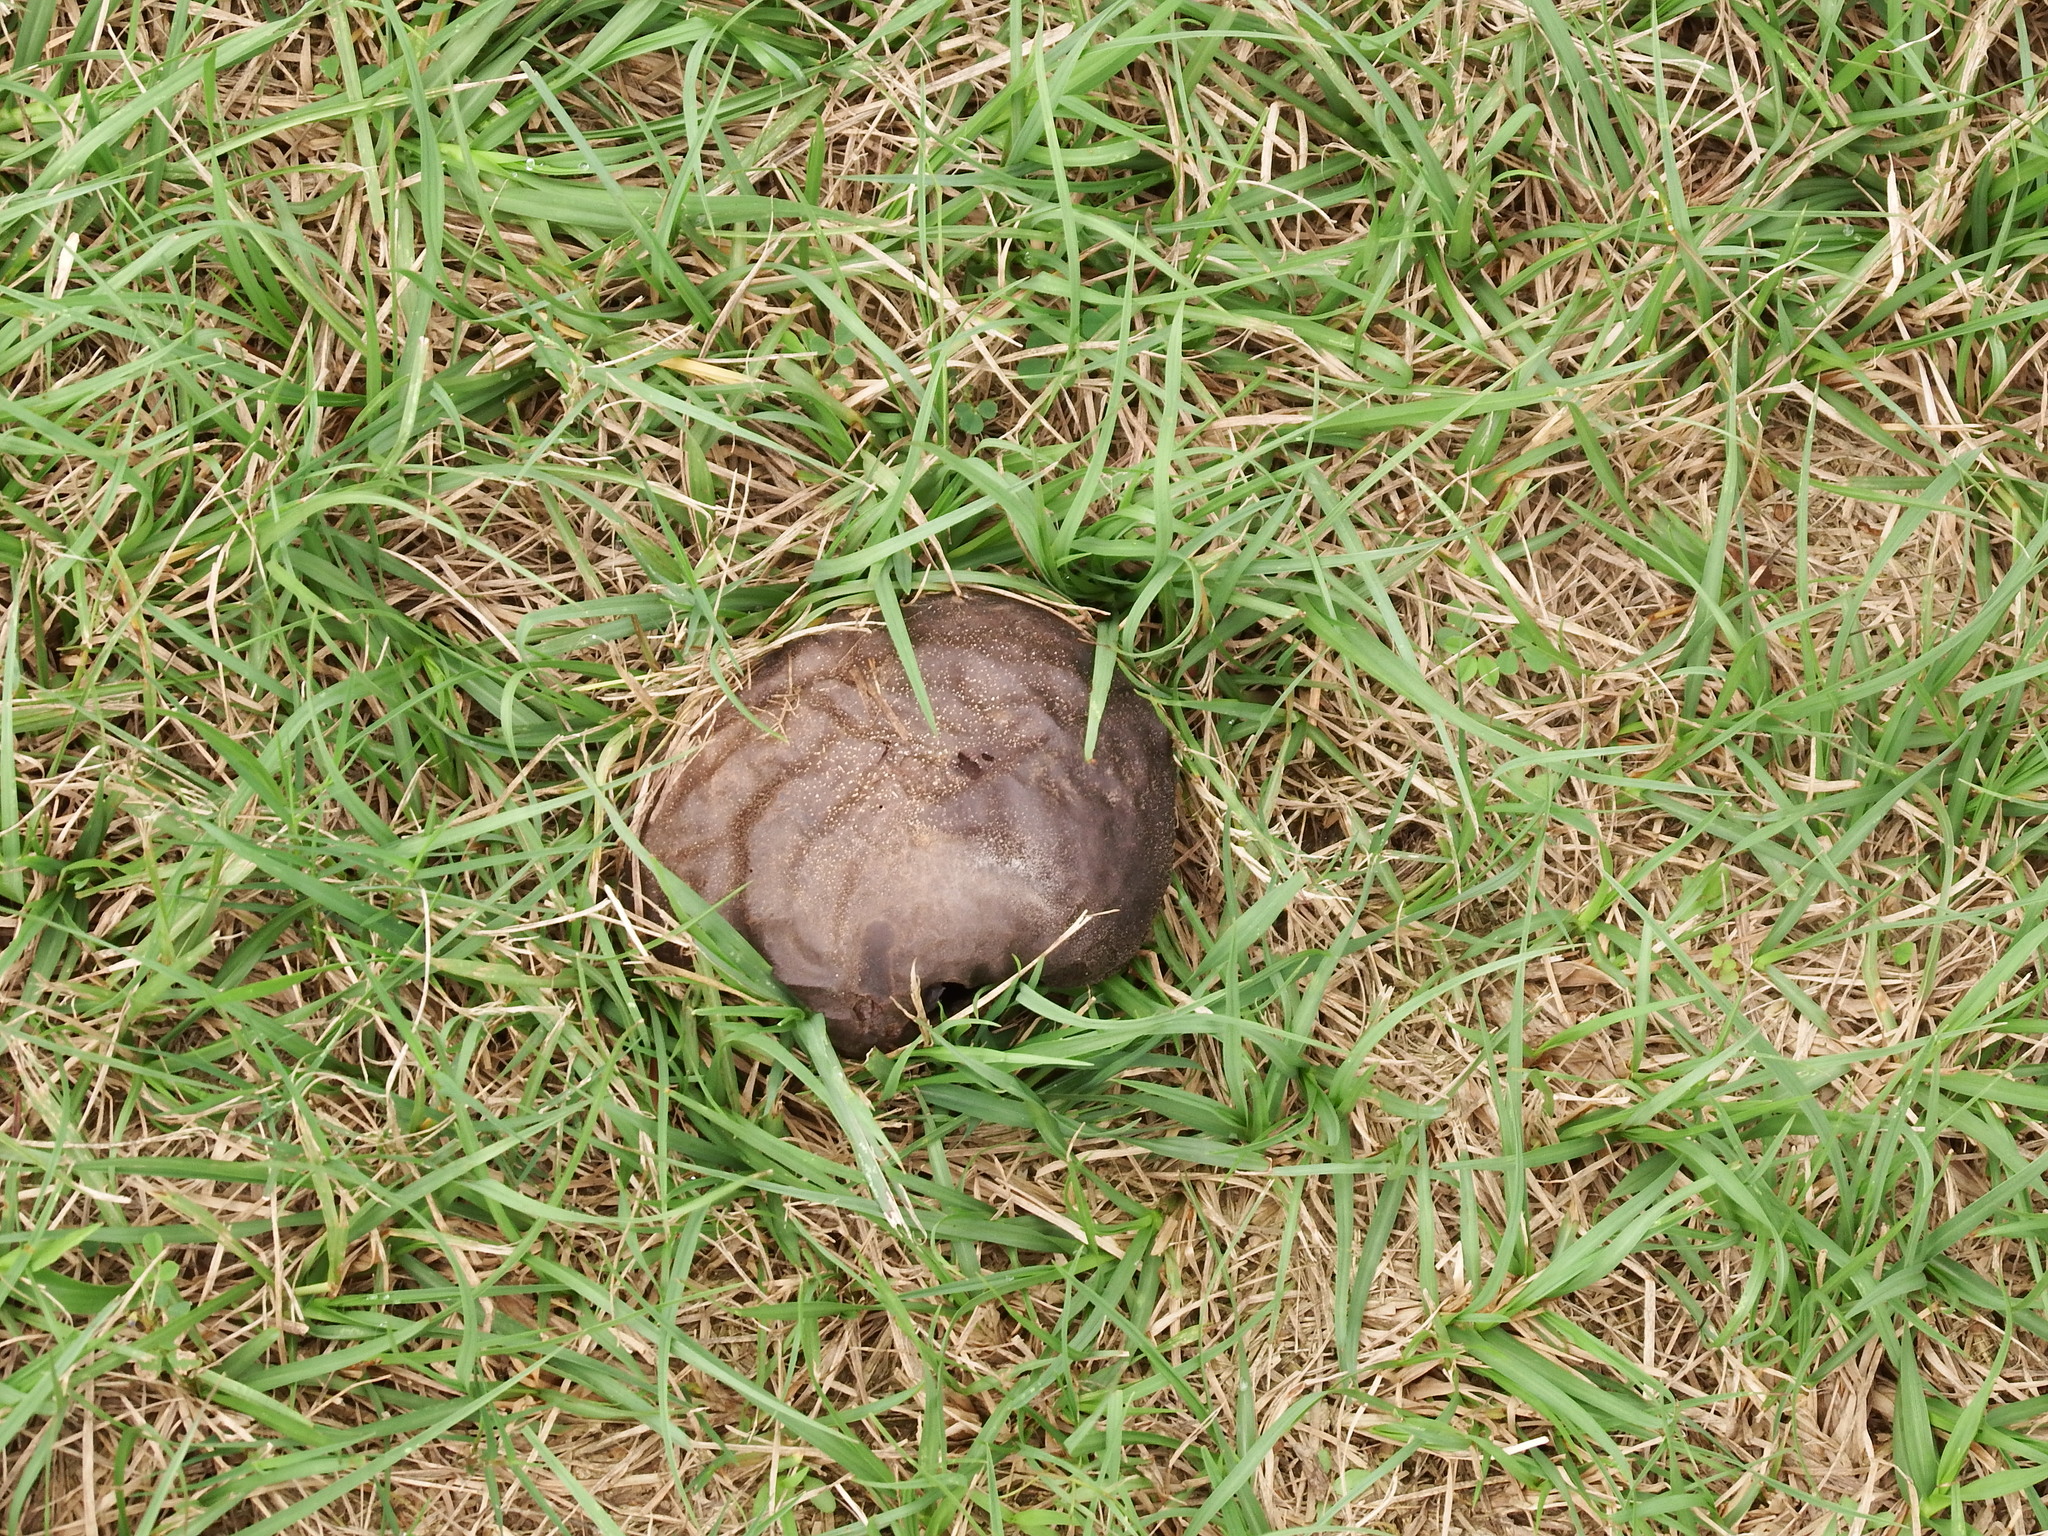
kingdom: Fungi
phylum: Basidiomycota
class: Agaricomycetes
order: Agaricales
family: Lycoperdaceae
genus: Calvatia
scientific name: Calvatia lilacina
